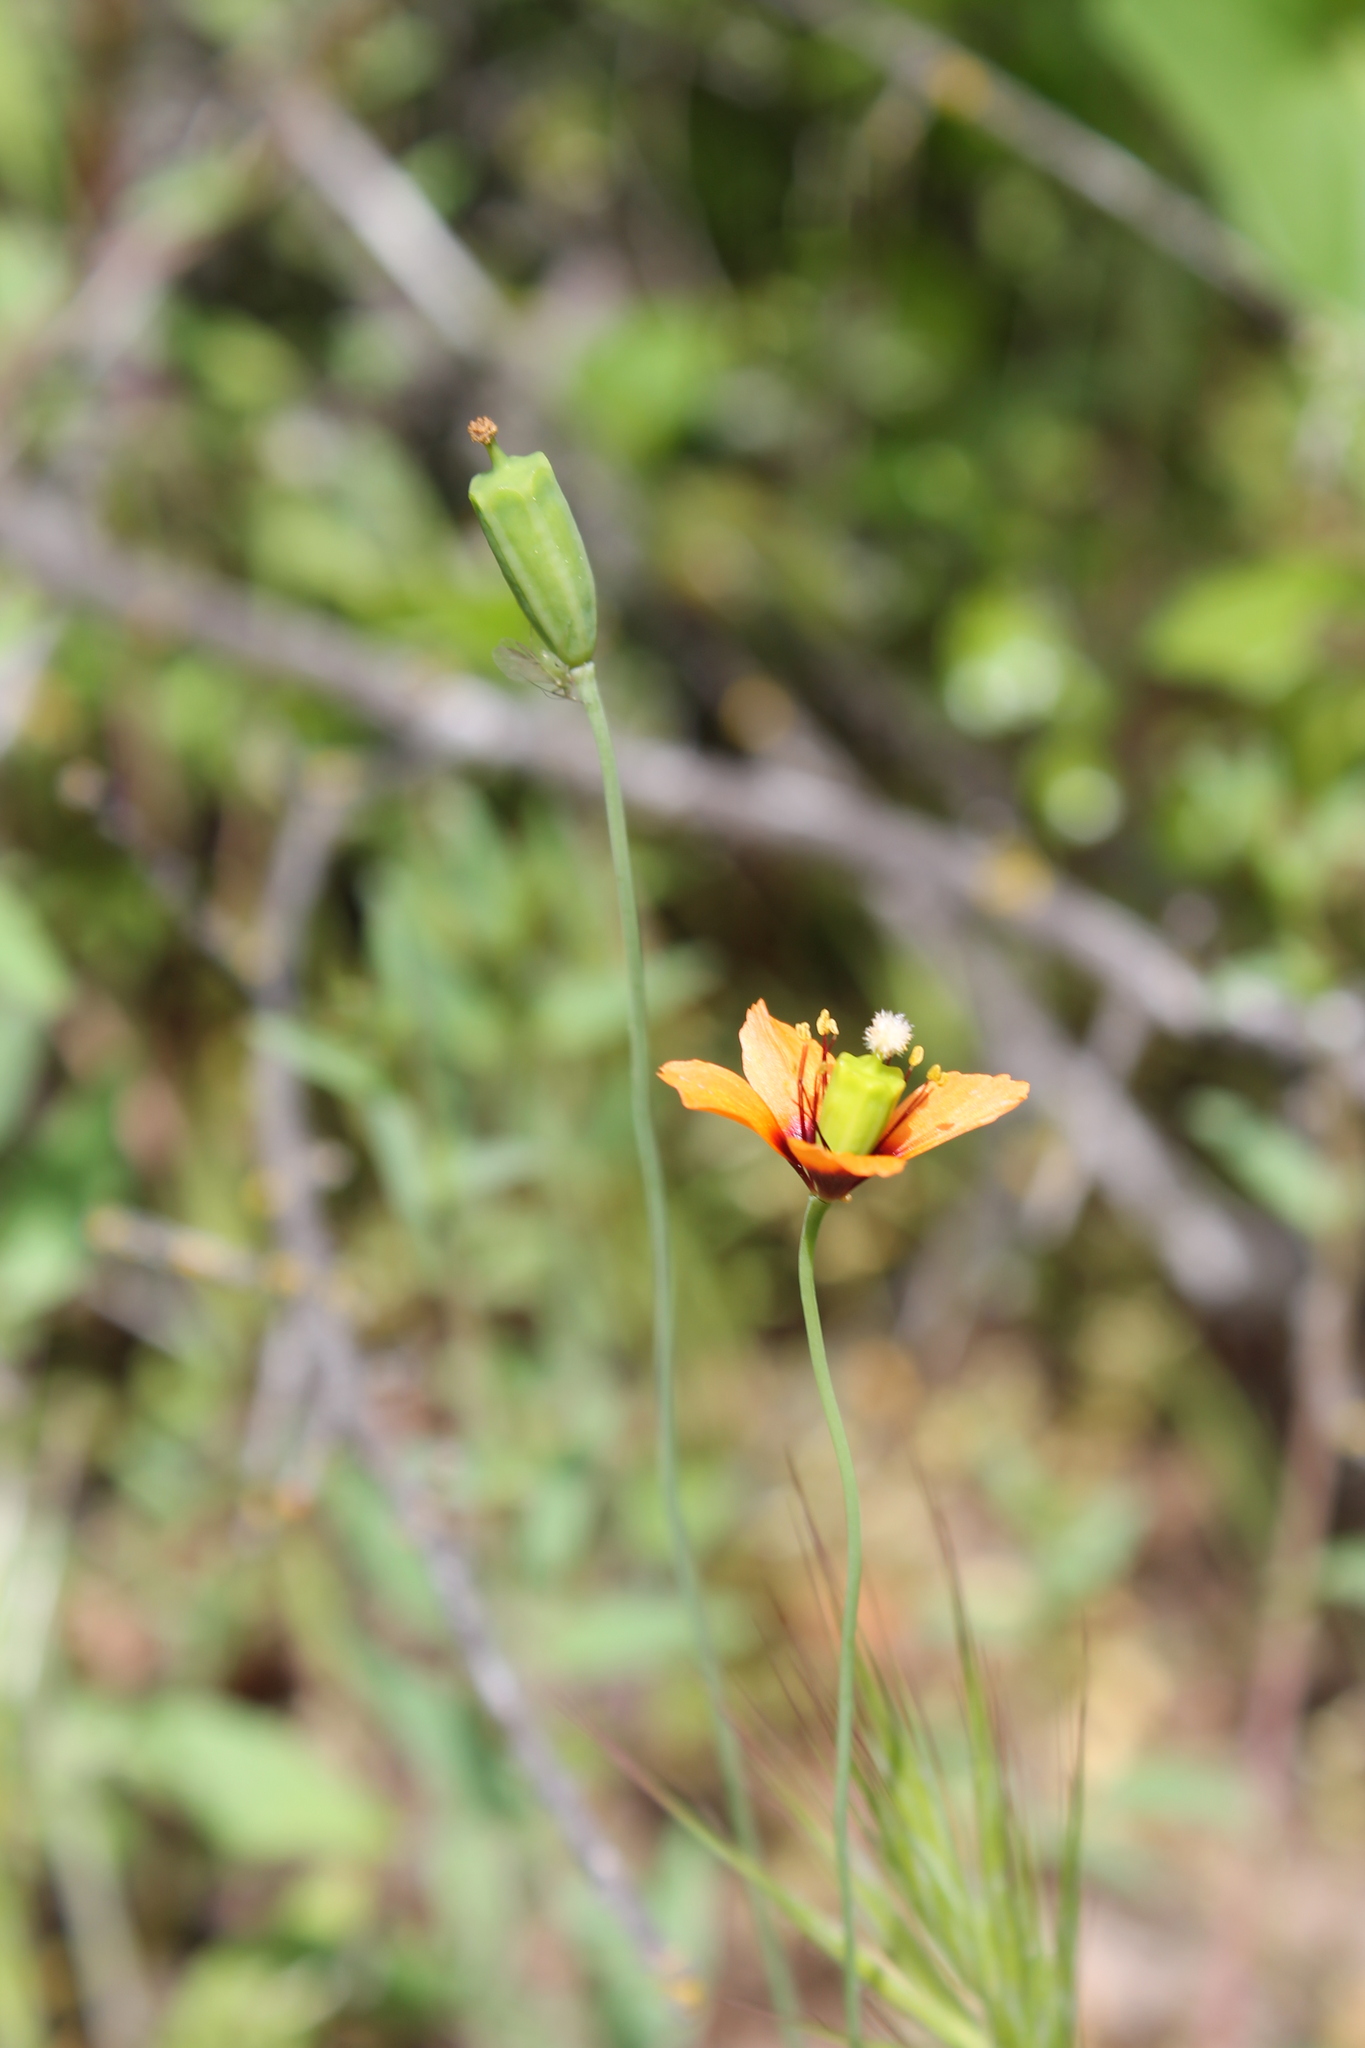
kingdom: Plantae
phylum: Tracheophyta
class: Magnoliopsida
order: Ranunculales
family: Papaveraceae
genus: Stylomecon
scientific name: Stylomecon heterophylla
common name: Flaming-poppy
